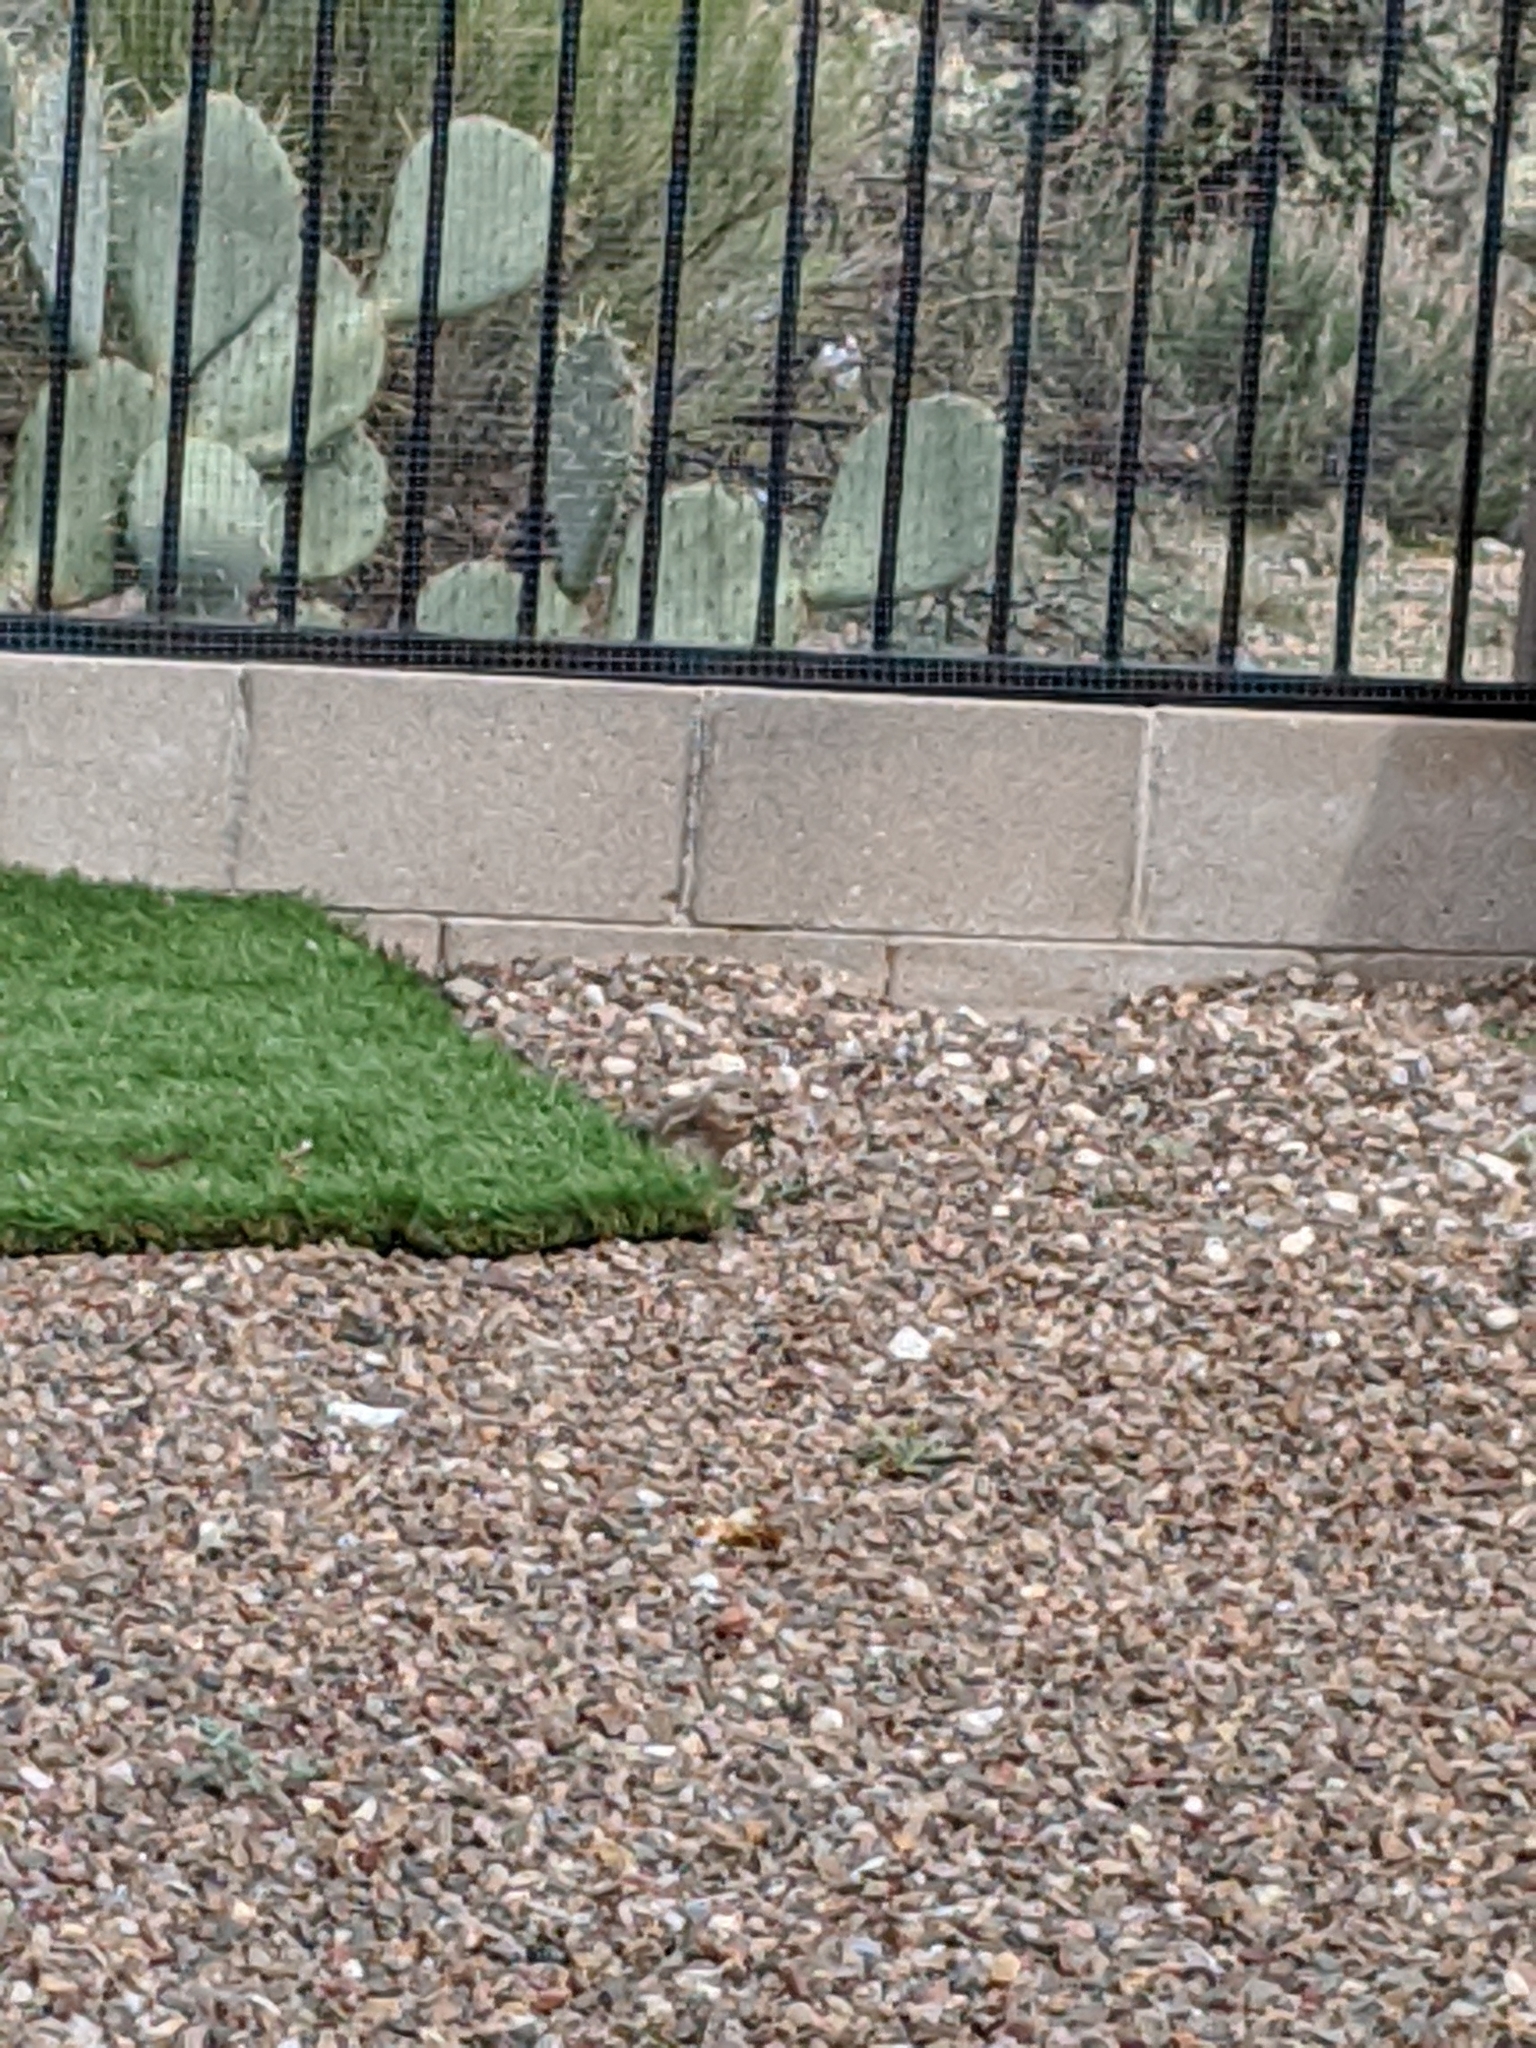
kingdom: Animalia
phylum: Chordata
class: Mammalia
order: Rodentia
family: Sciuridae
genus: Ammospermophilus
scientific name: Ammospermophilus harrisii
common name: Harris's antelope squirrel
